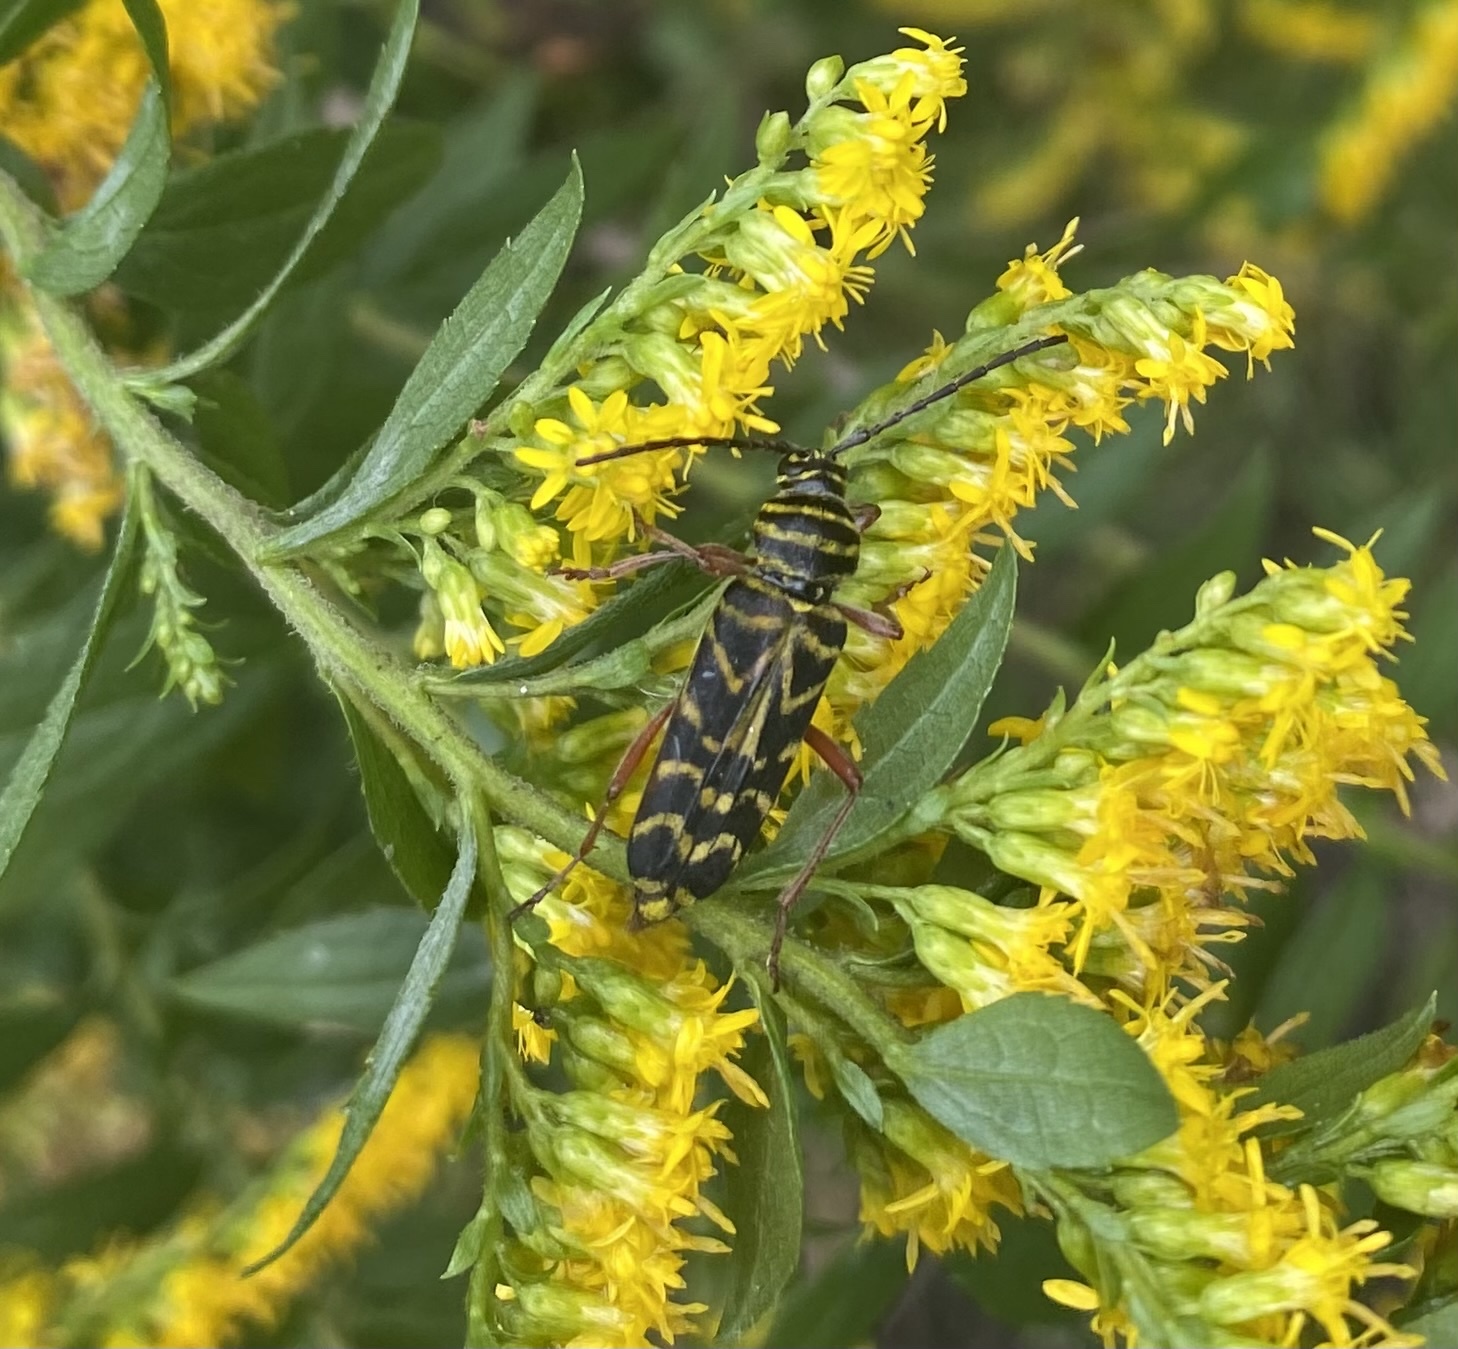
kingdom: Animalia
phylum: Arthropoda
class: Insecta
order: Coleoptera
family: Cerambycidae
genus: Megacyllene
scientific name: Megacyllene robiniae
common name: Locust borer
